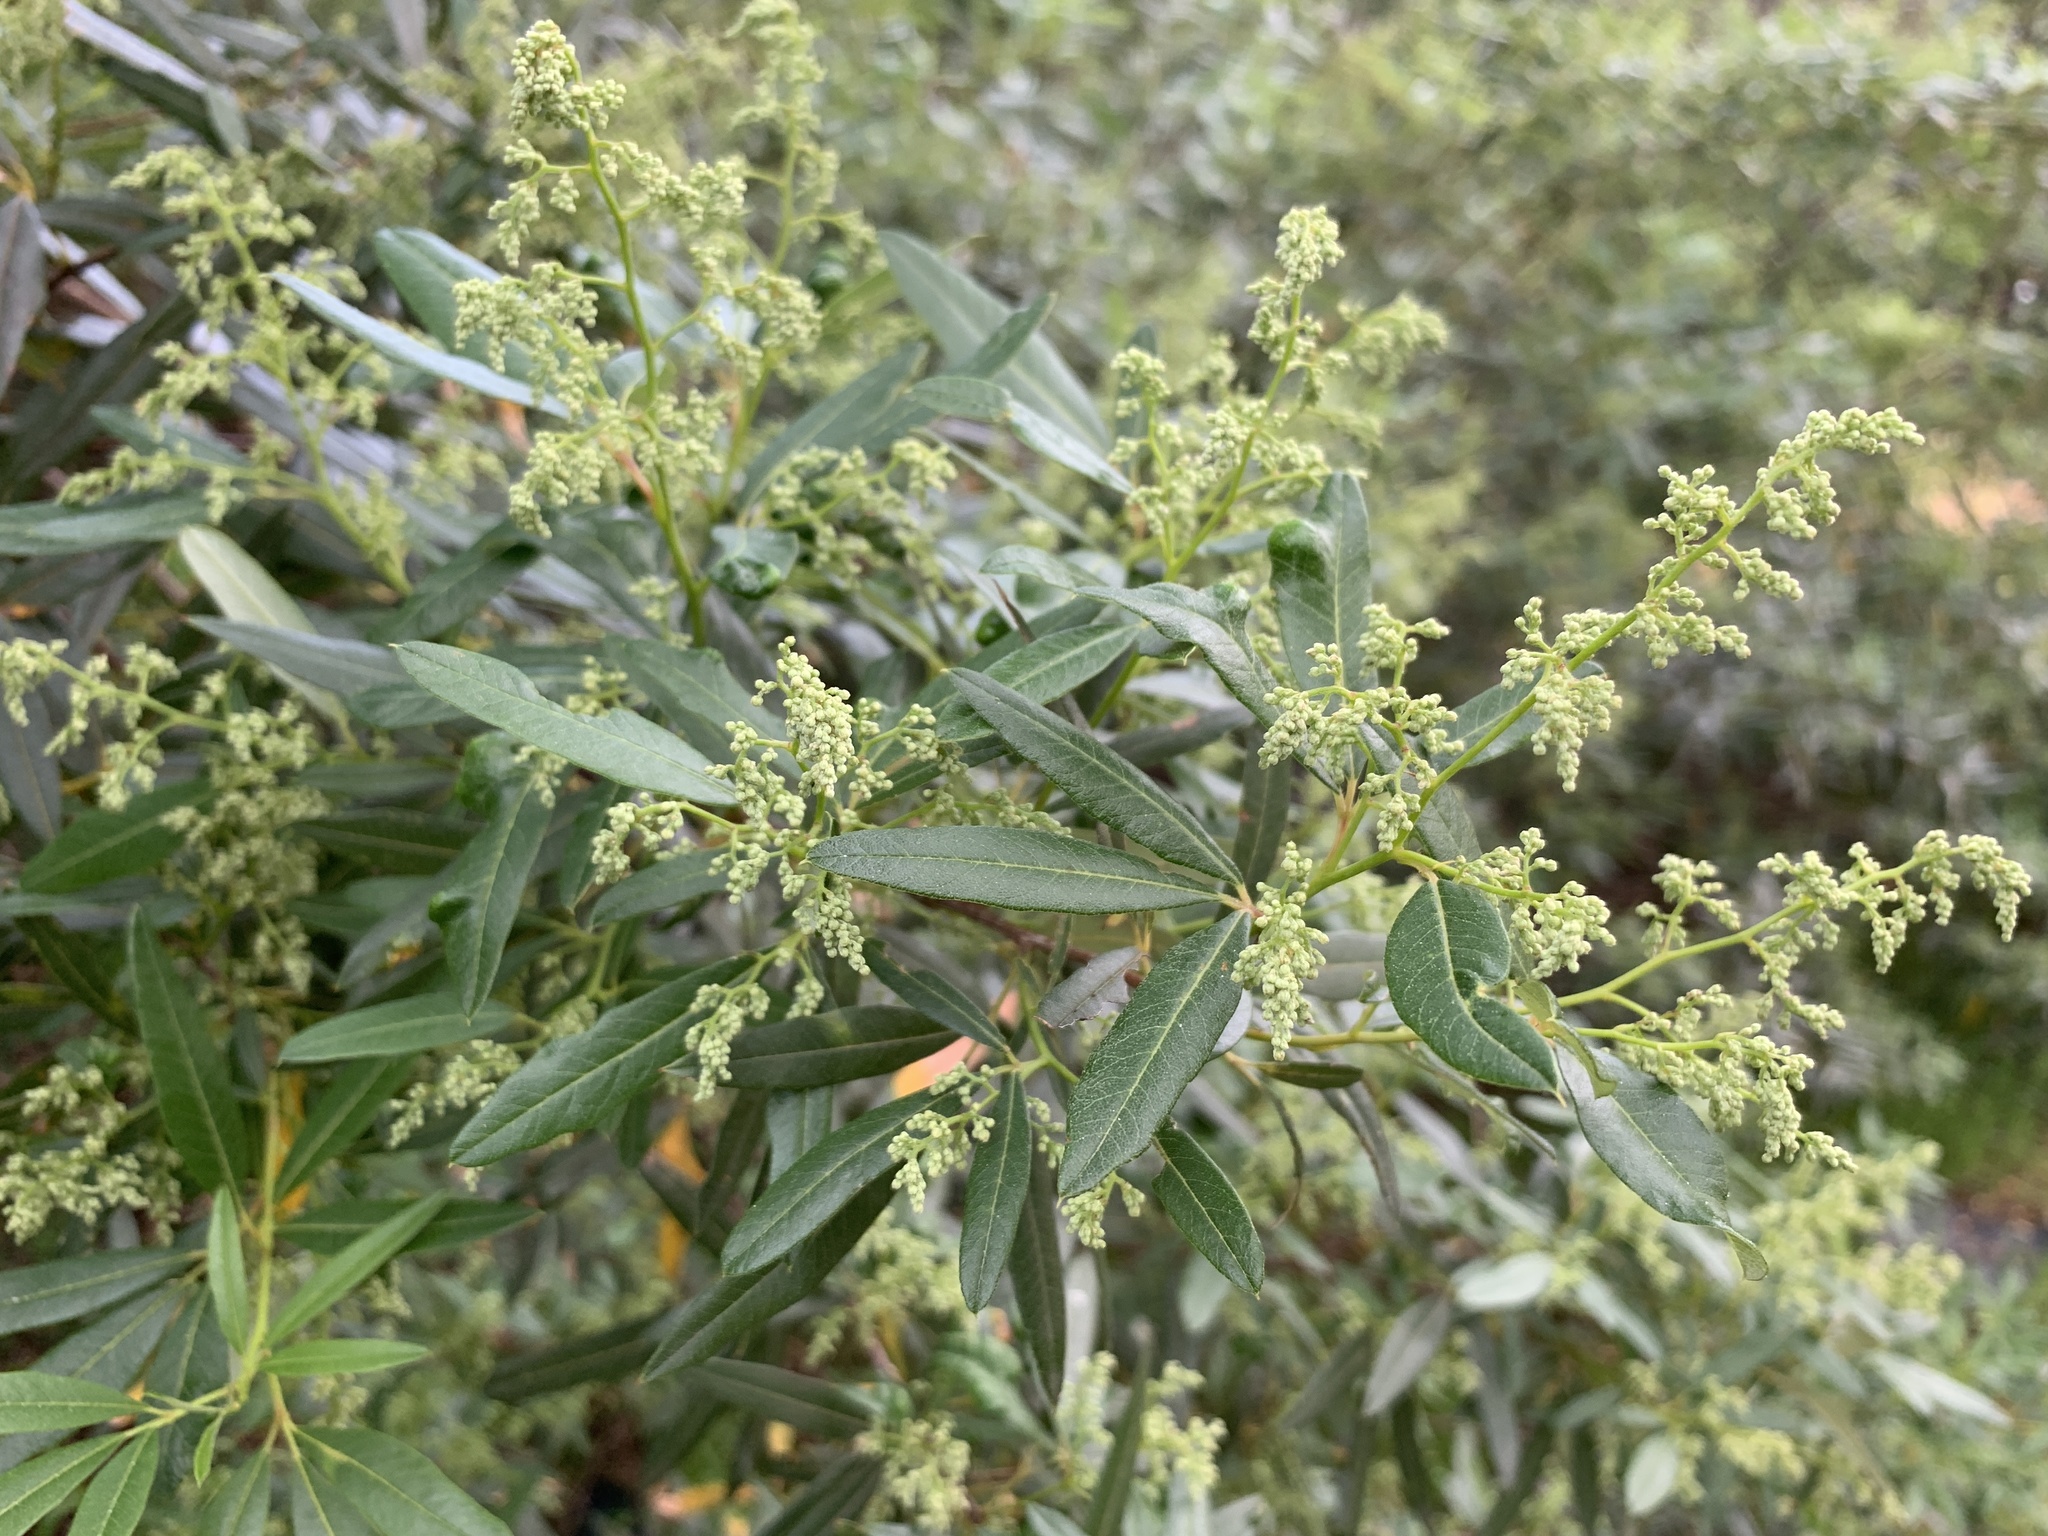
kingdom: Plantae
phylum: Tracheophyta
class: Magnoliopsida
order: Sapindales
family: Anacardiaceae
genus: Searsia
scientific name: Searsia angustifolia
